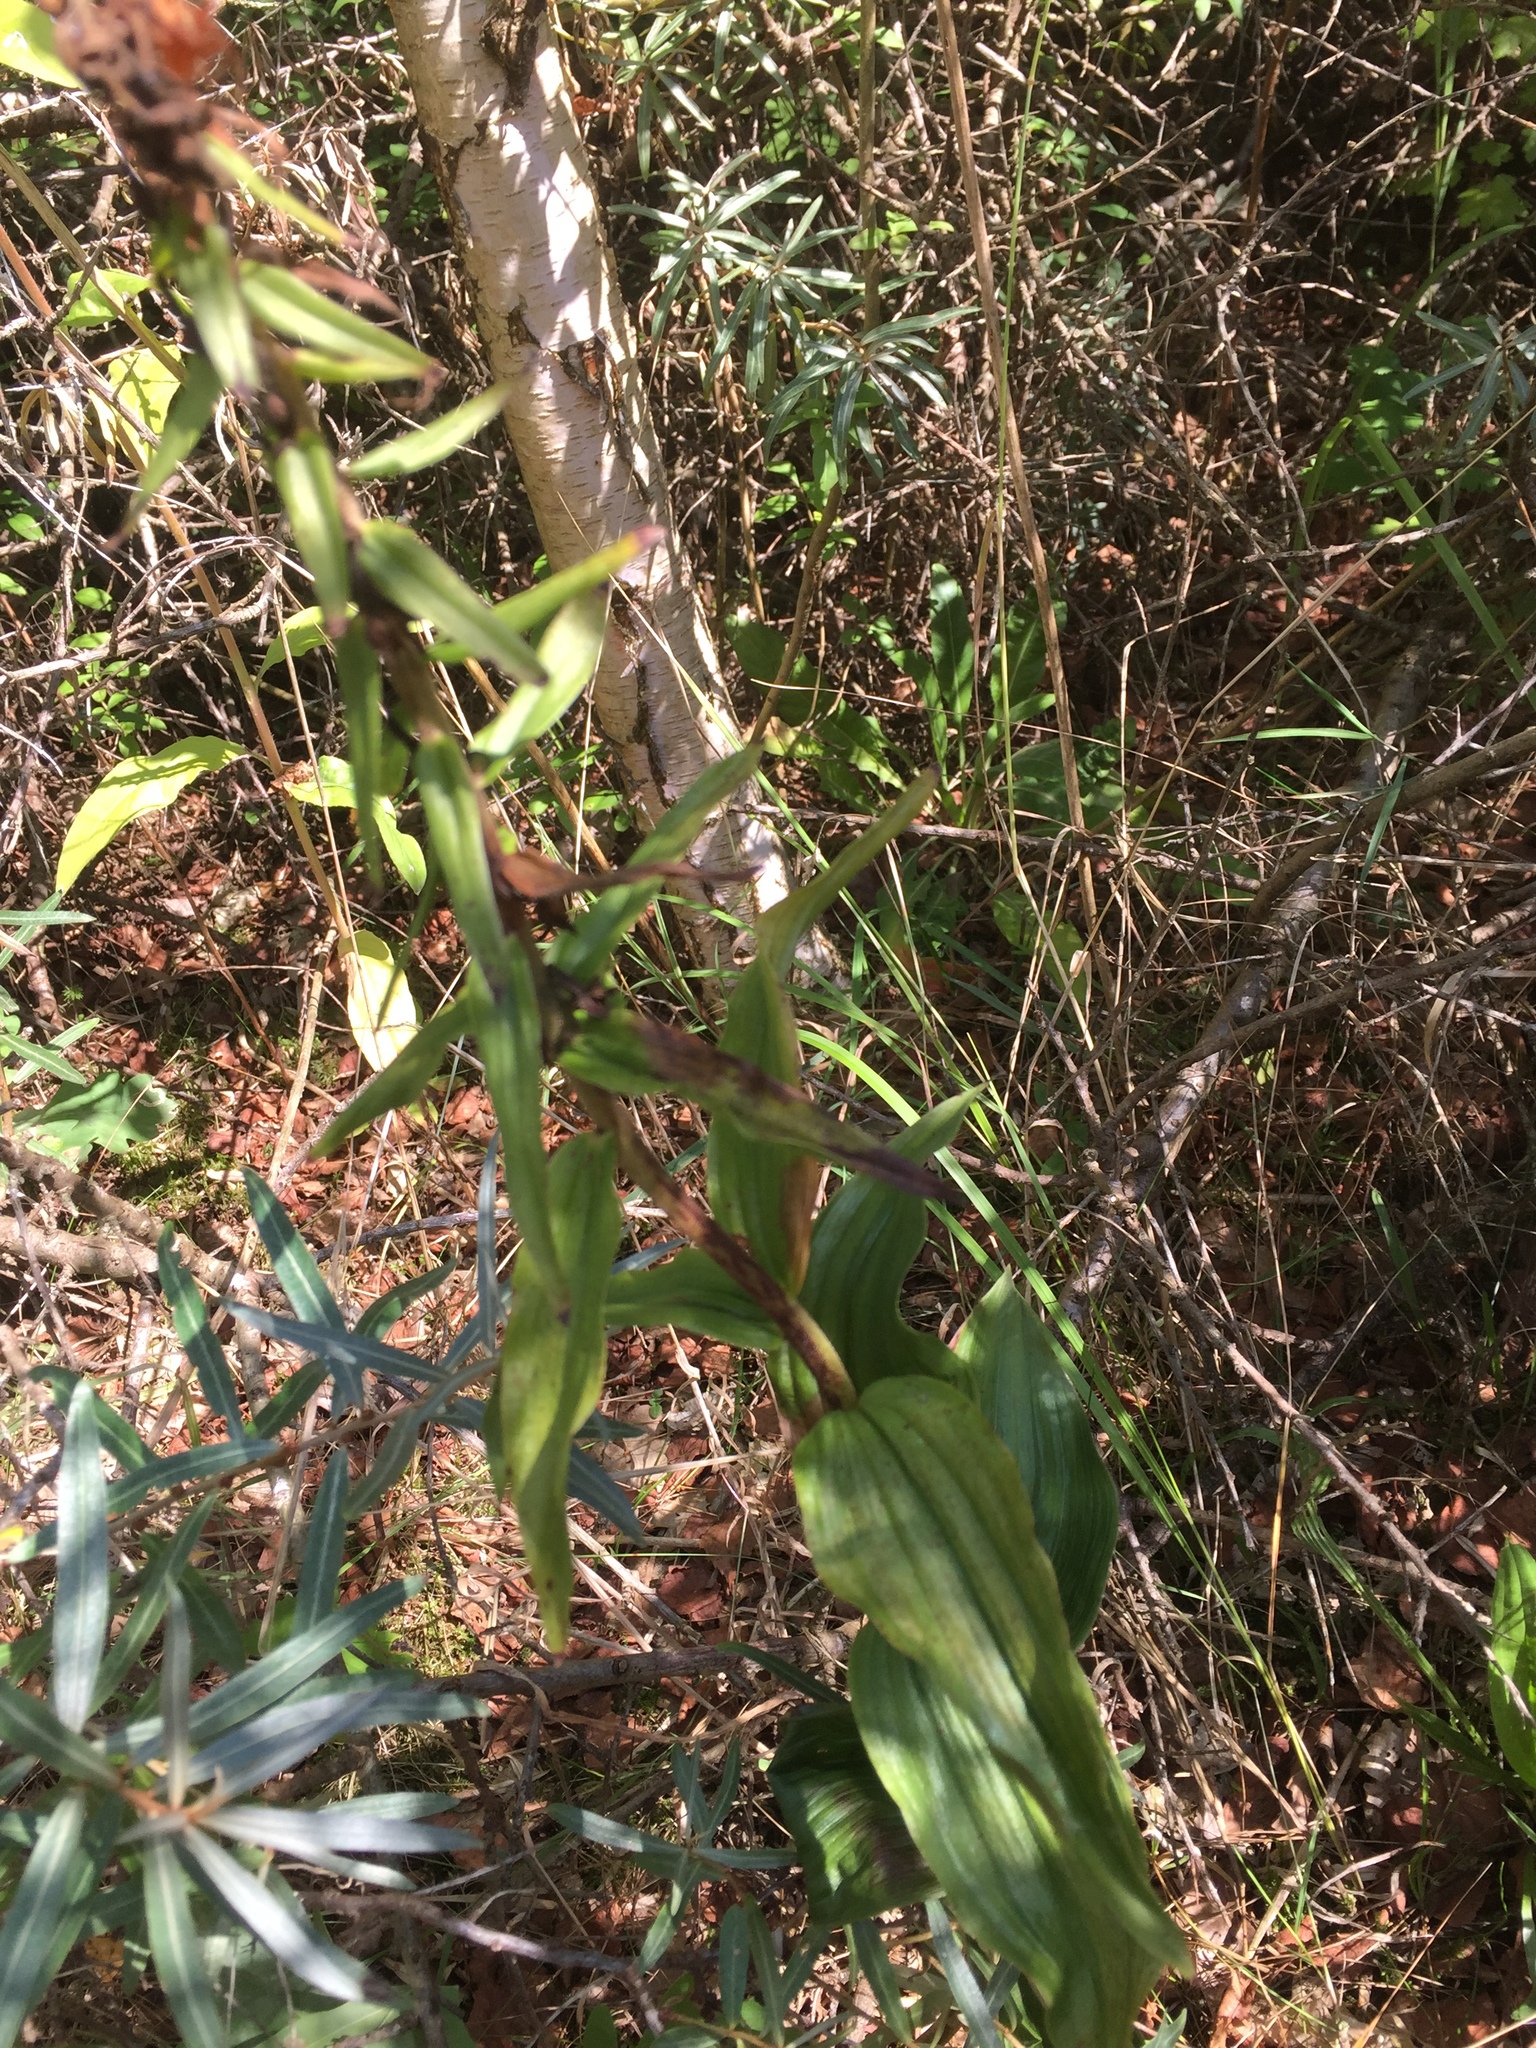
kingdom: Plantae
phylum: Tracheophyta
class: Liliopsida
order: Asparagales
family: Orchidaceae
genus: Epipactis
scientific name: Epipactis helleborine
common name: Broad-leaved helleborine
